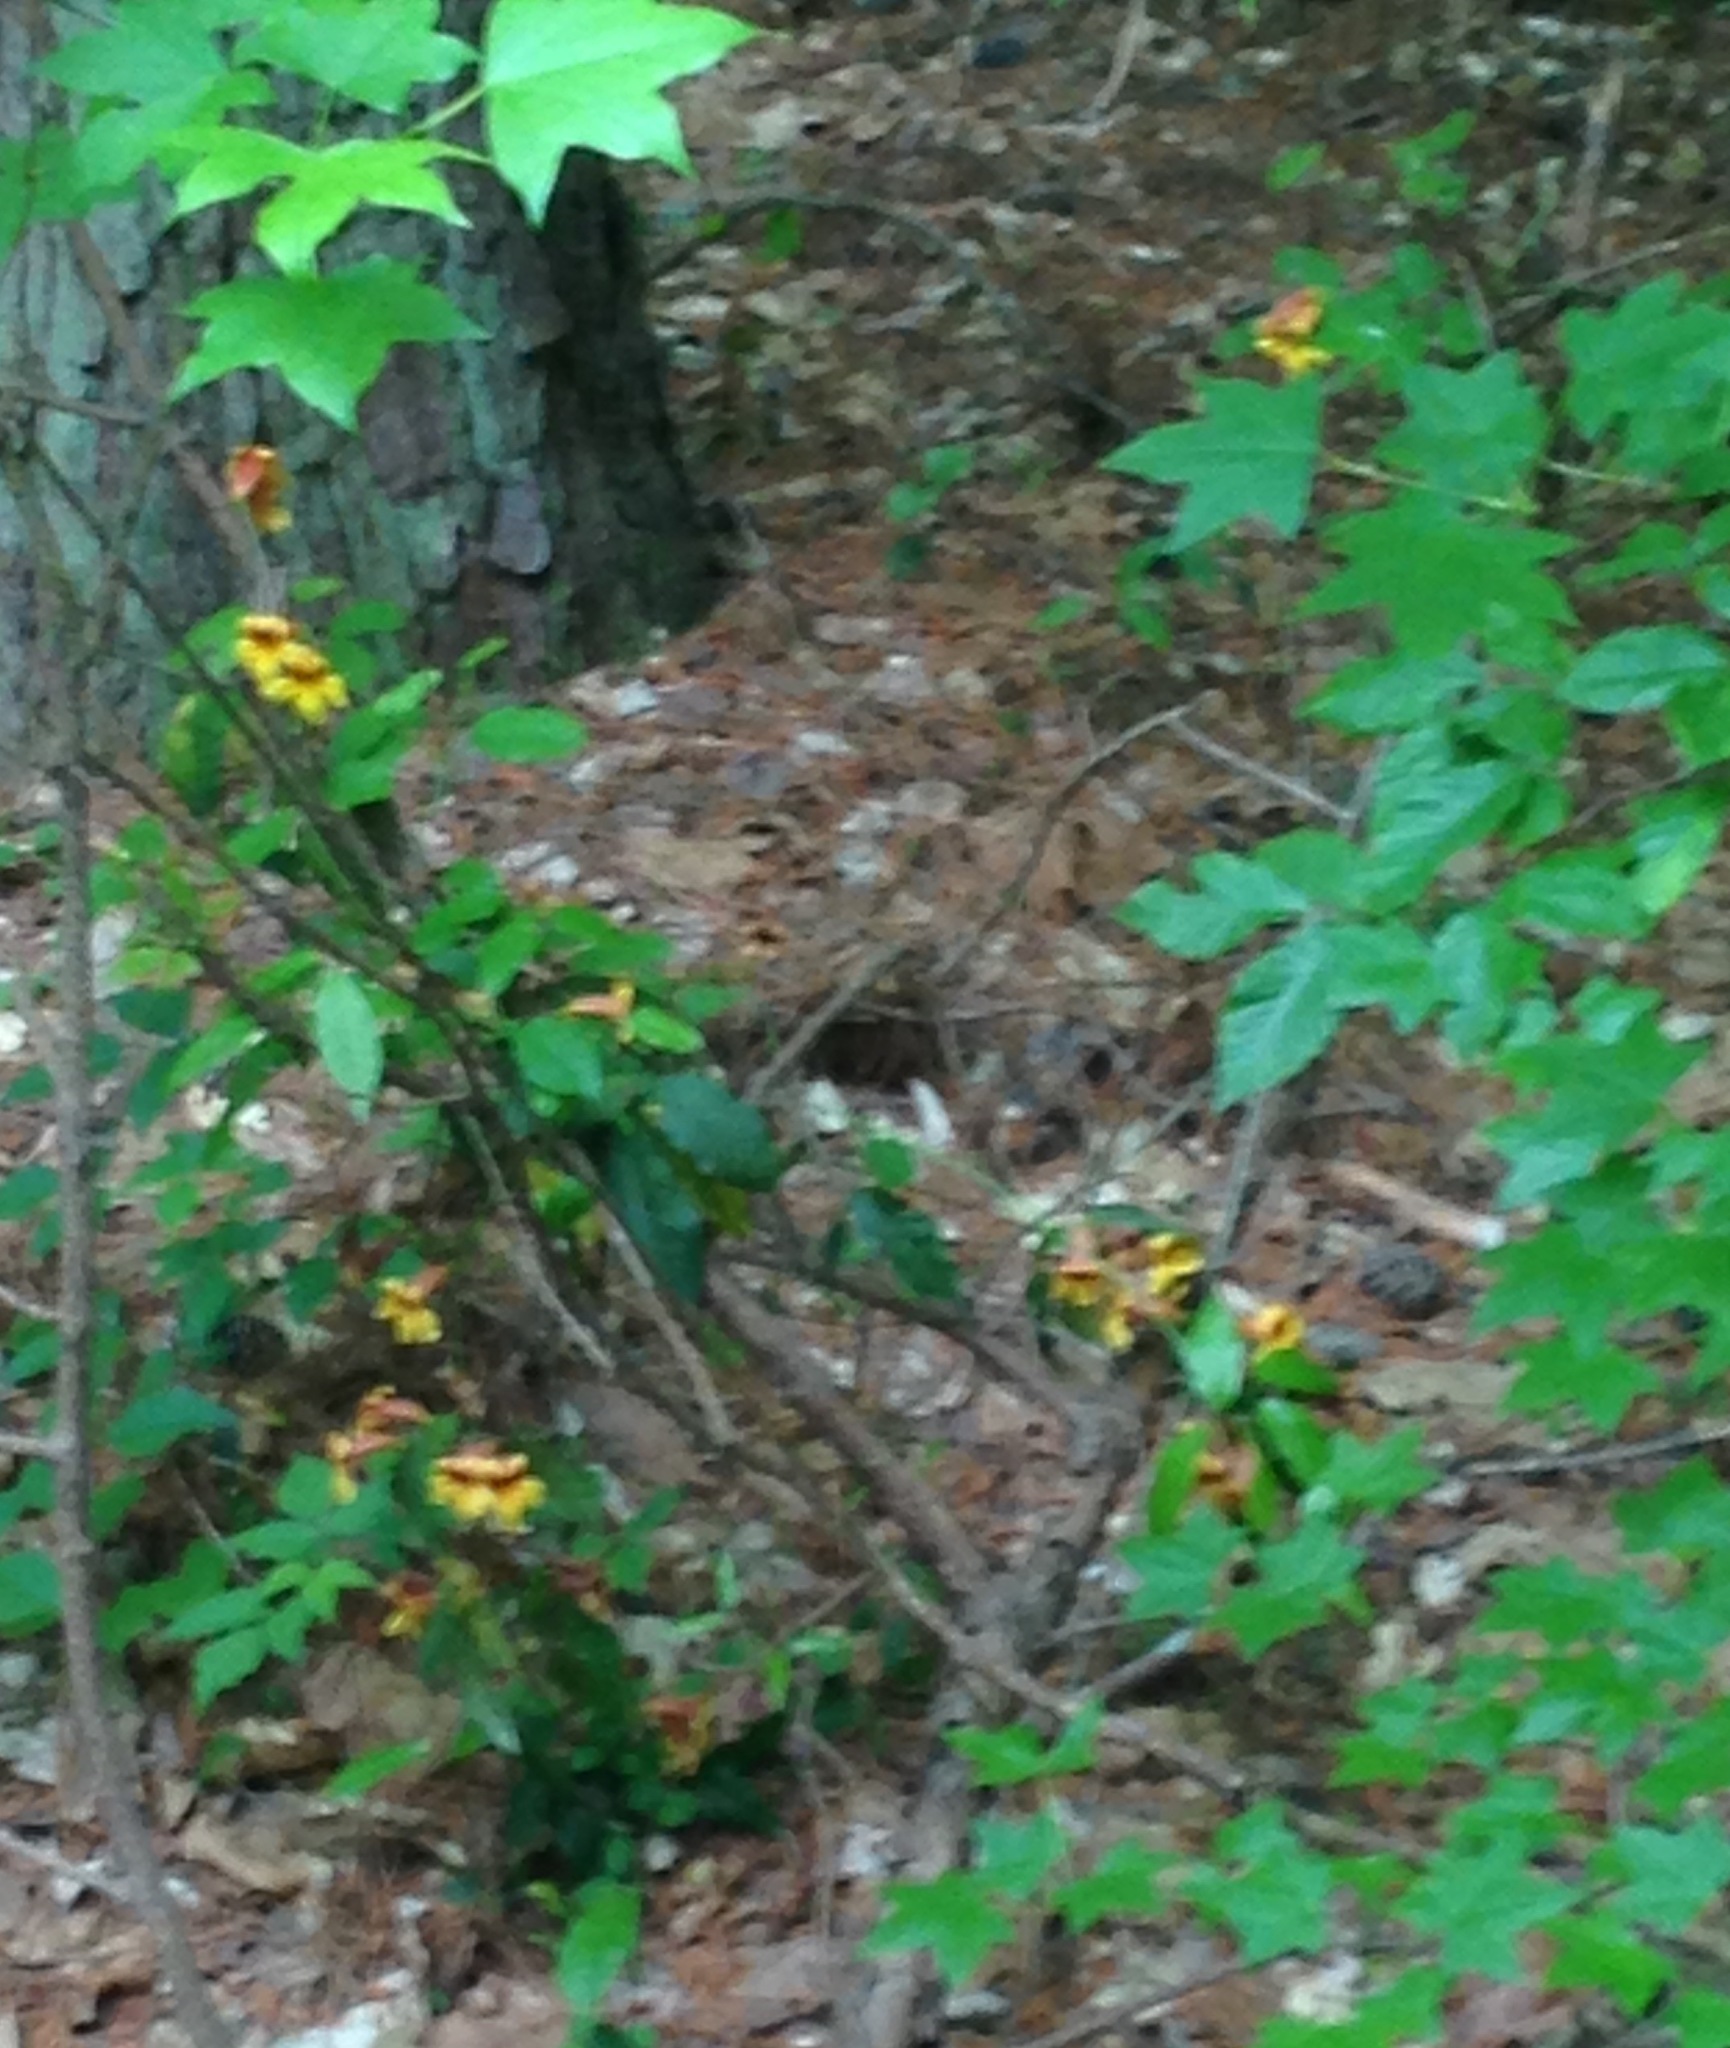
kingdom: Plantae
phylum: Tracheophyta
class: Magnoliopsida
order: Lamiales
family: Bignoniaceae
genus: Bignonia
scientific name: Bignonia capreolata
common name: Crossvine
